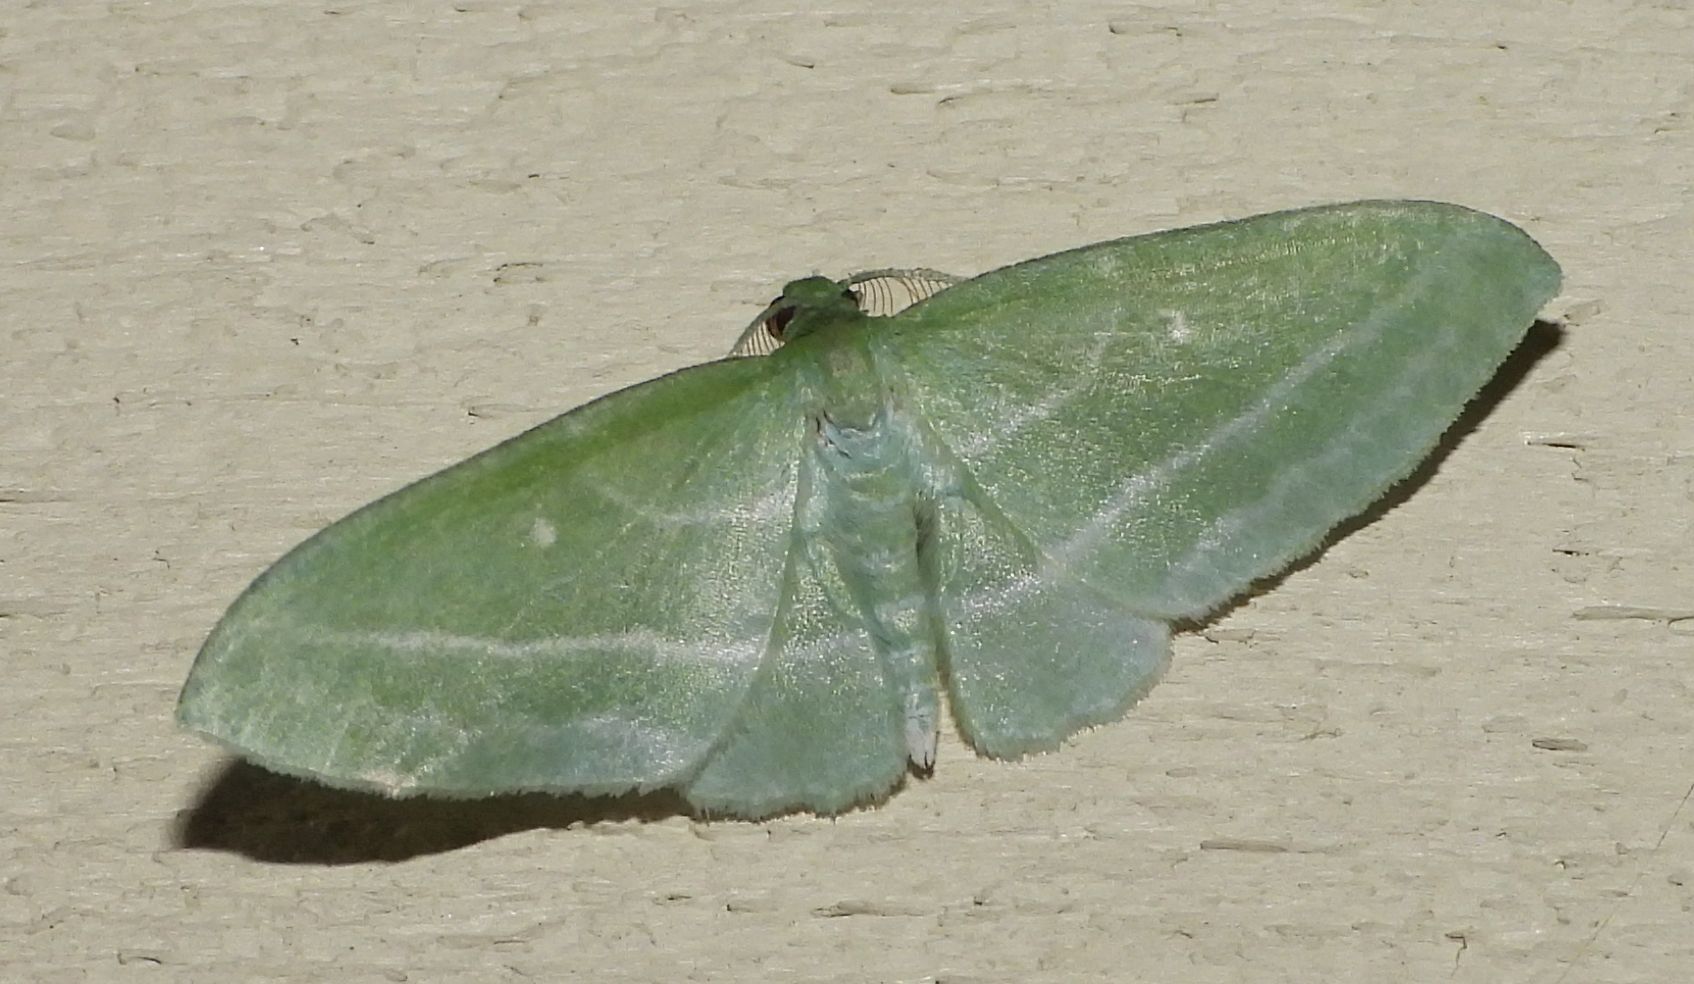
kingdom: Animalia
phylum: Arthropoda
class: Insecta
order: Lepidoptera
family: Geometridae
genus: Dyspteris
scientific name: Dyspteris abortivaria
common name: Bad-wing
